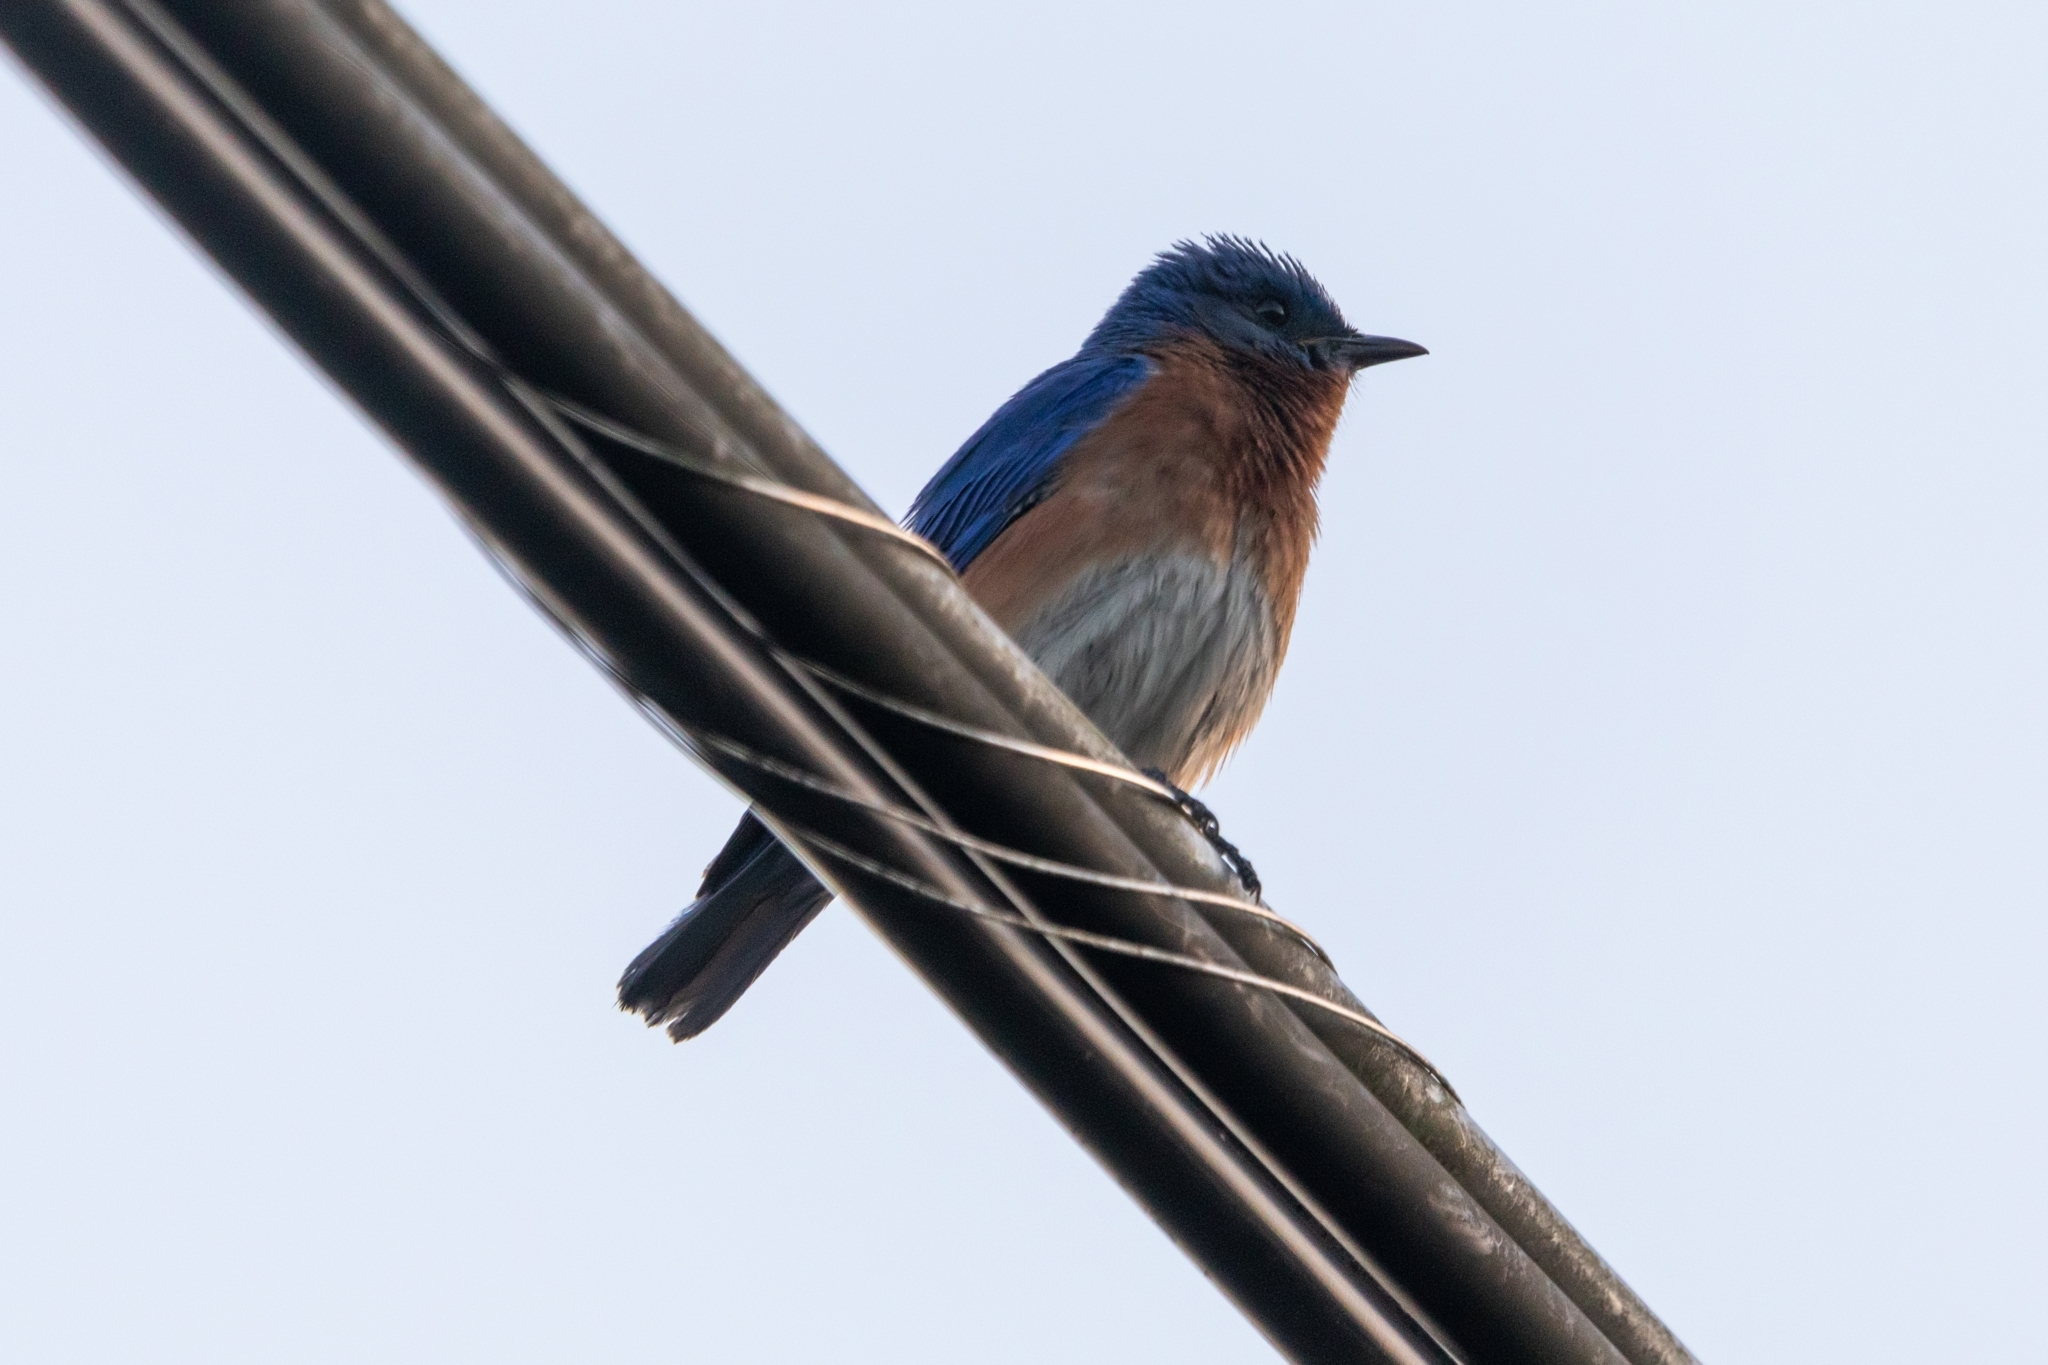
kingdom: Animalia
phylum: Chordata
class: Aves
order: Passeriformes
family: Turdidae
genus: Sialia
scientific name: Sialia sialis
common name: Eastern bluebird
